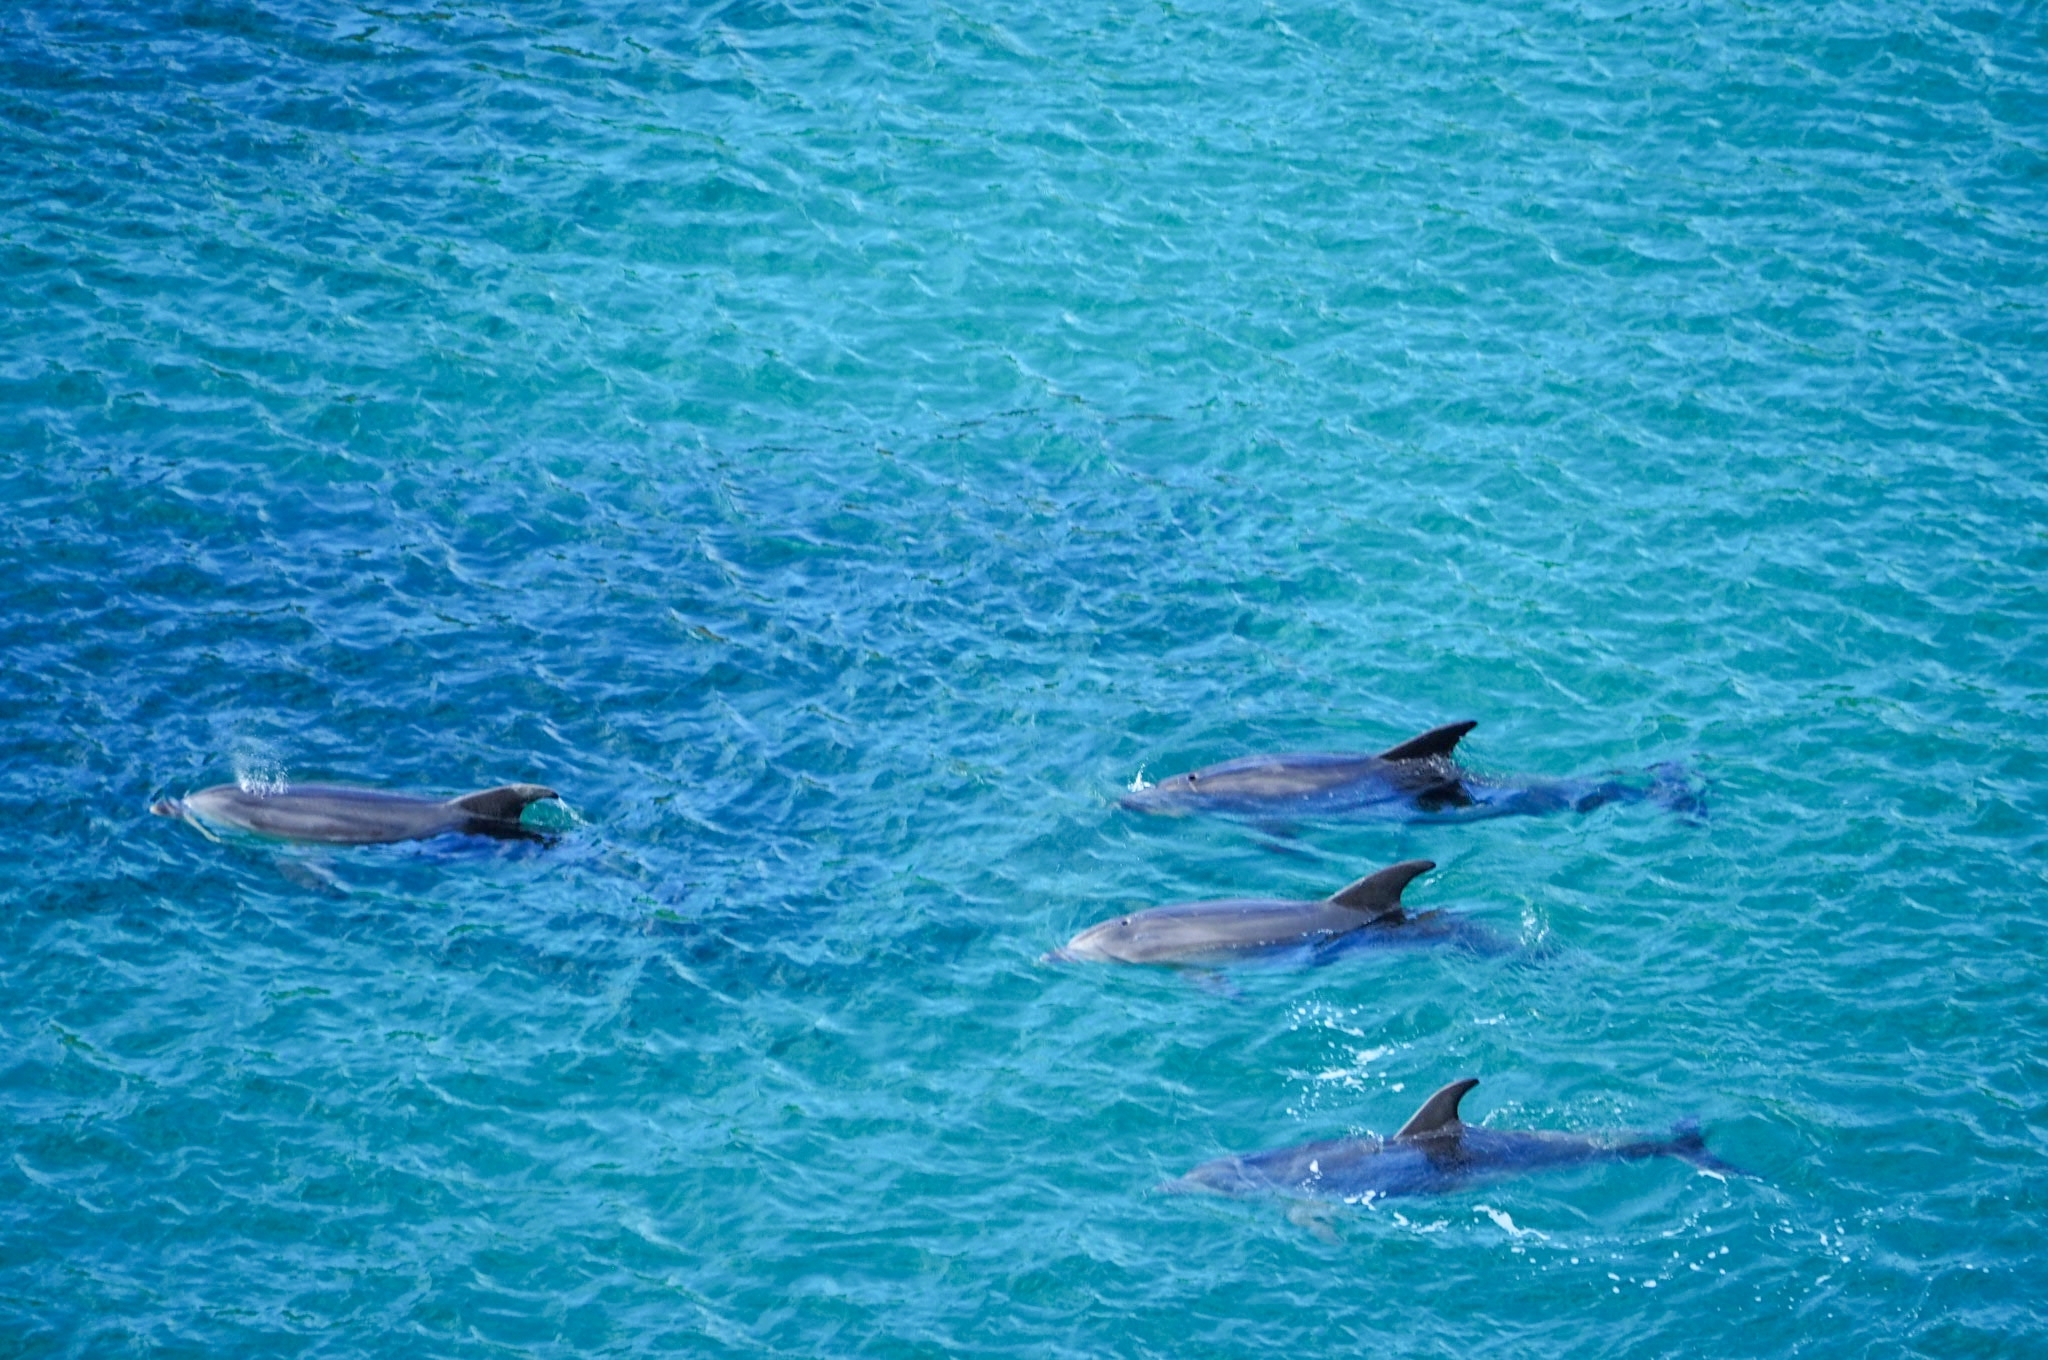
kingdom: Animalia
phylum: Chordata
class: Mammalia
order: Cetacea
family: Delphinidae
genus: Tursiops
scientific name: Tursiops truncatus
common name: Bottlenose dolphin
